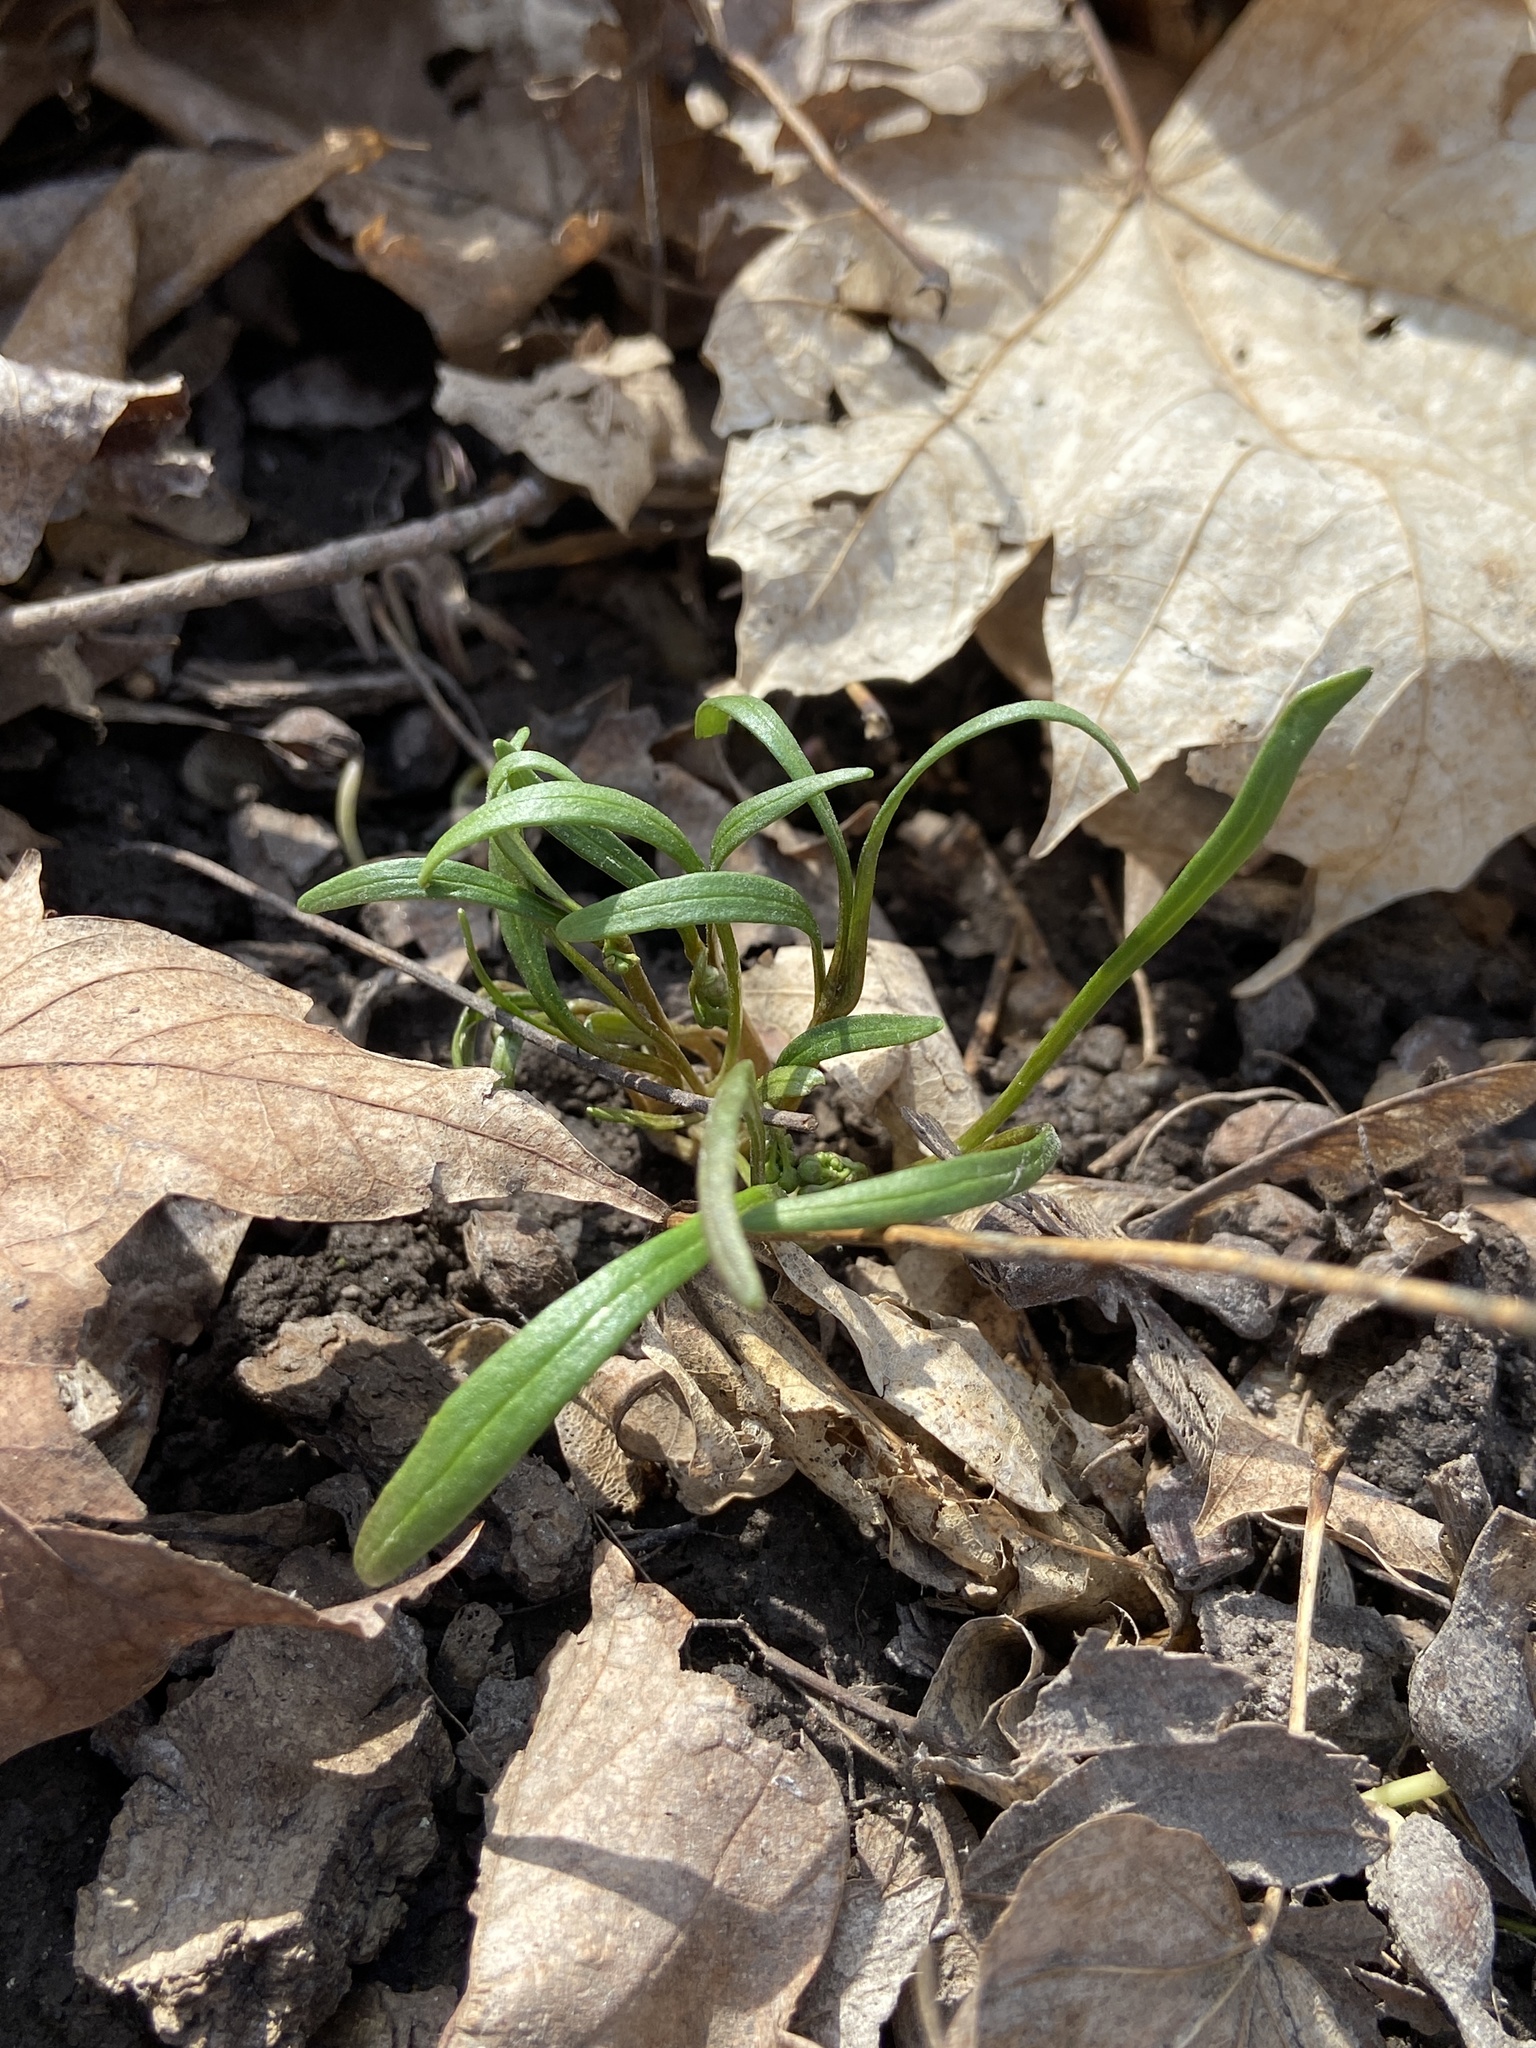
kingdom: Plantae
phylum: Tracheophyta
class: Magnoliopsida
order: Caryophyllales
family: Montiaceae
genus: Claytonia
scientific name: Claytonia virginica
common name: Virginia springbeauty
